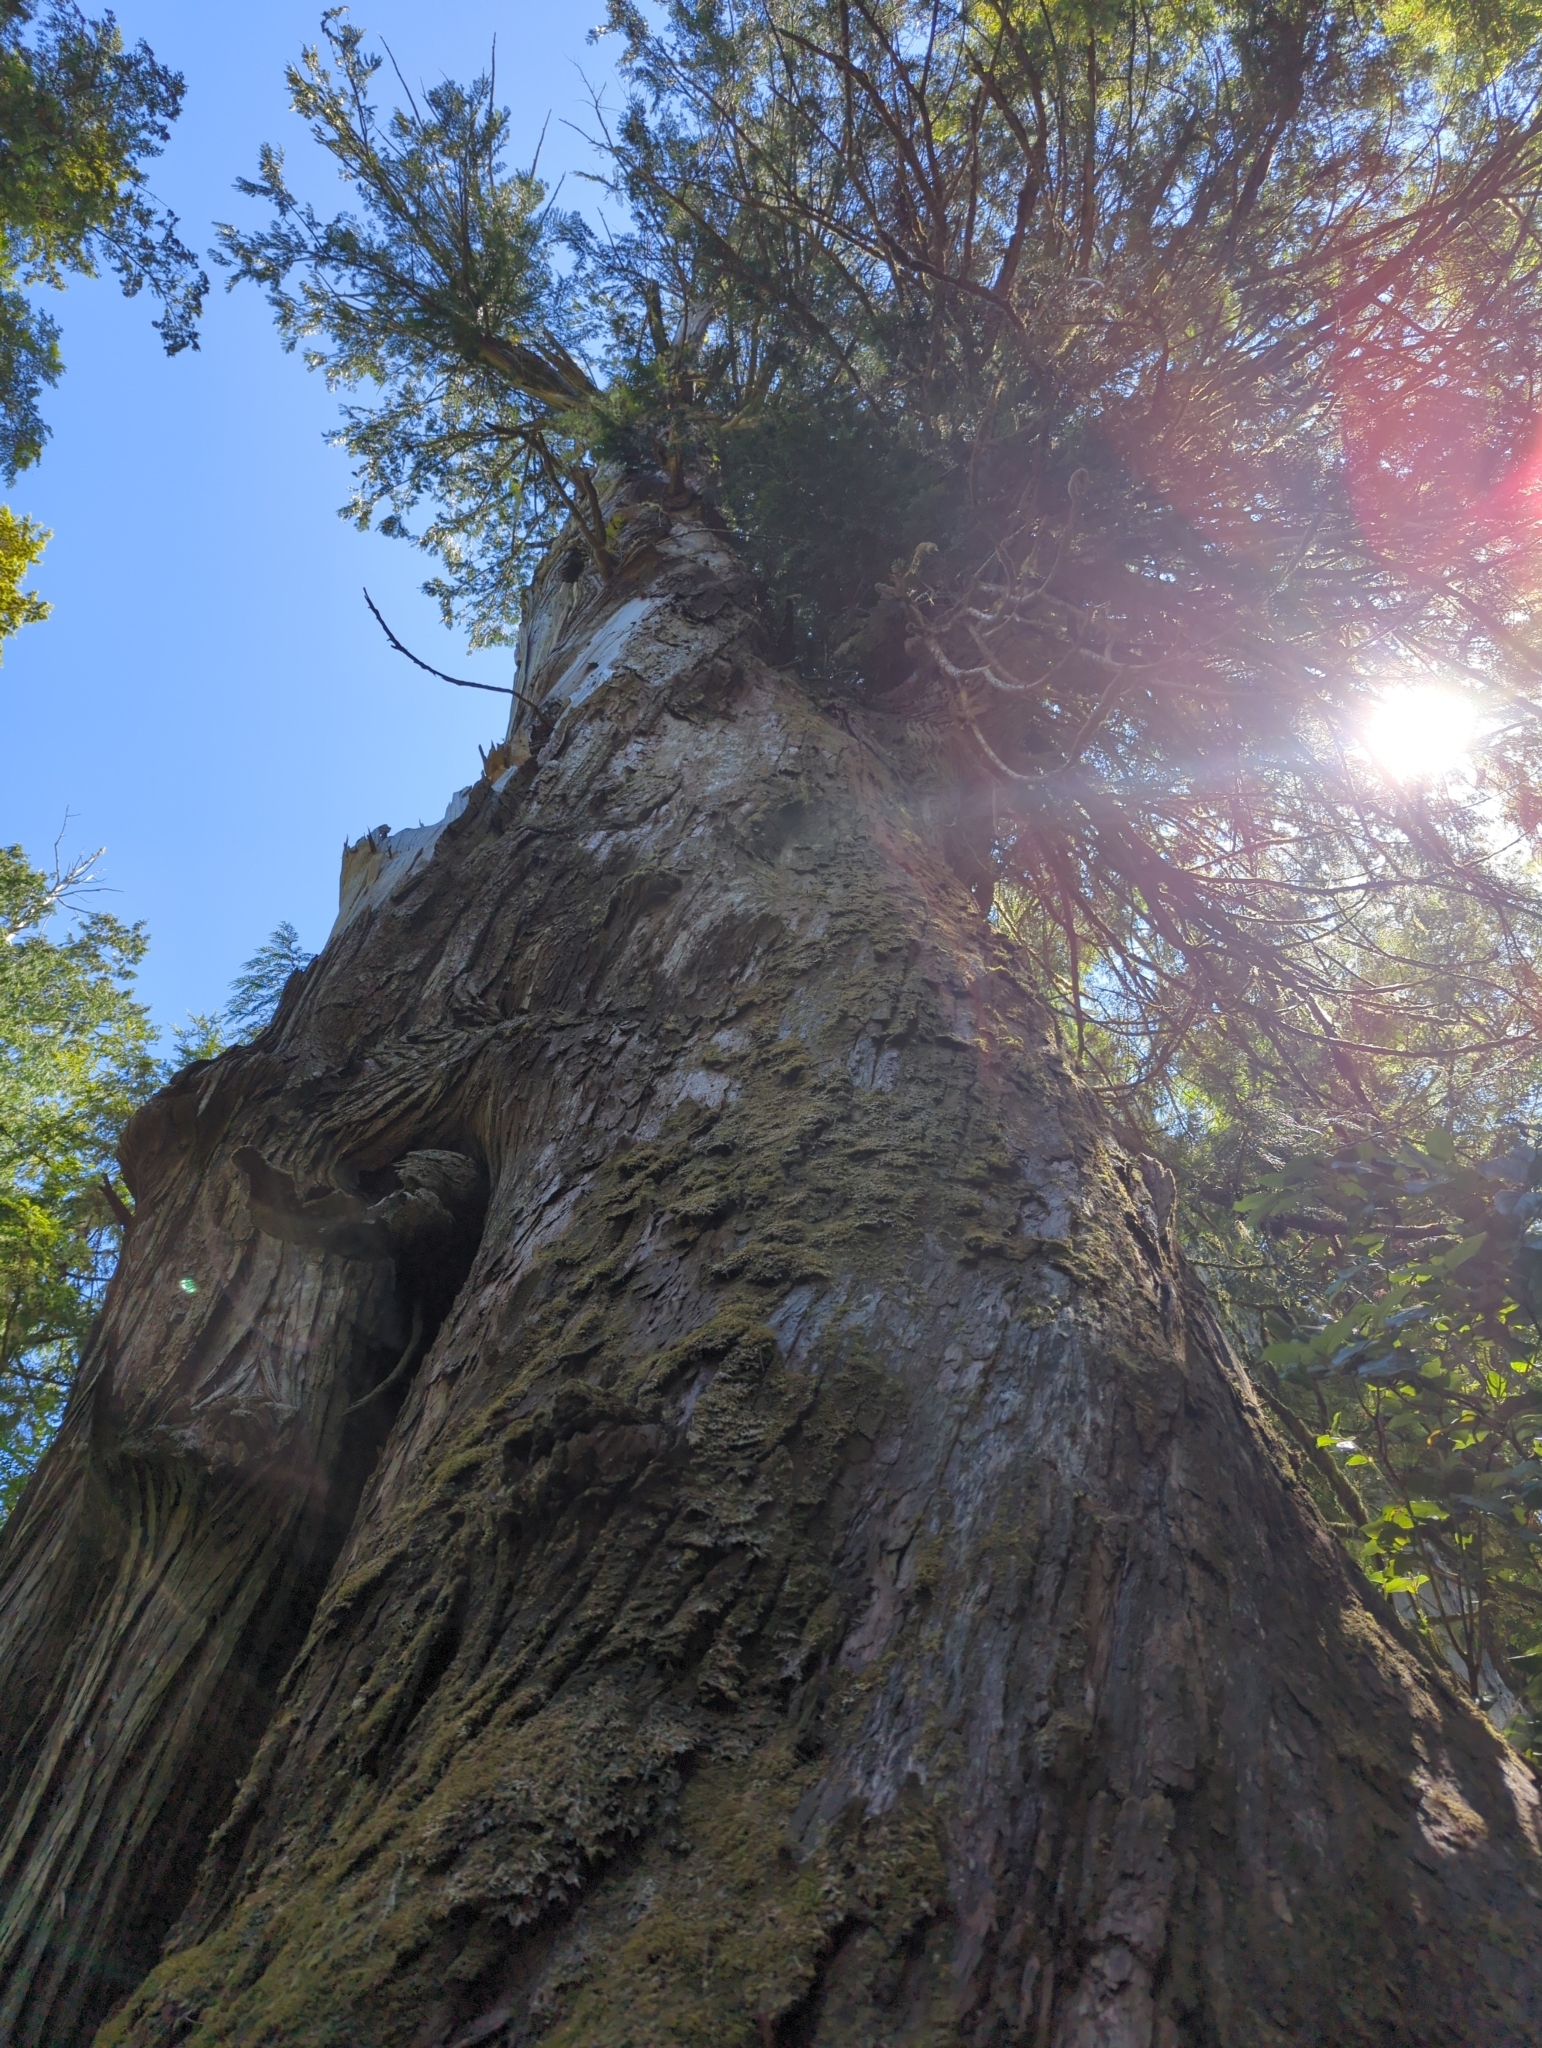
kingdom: Plantae
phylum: Tracheophyta
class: Pinopsida
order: Pinales
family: Cupressaceae
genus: Thuja
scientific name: Thuja plicata
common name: Western red-cedar
